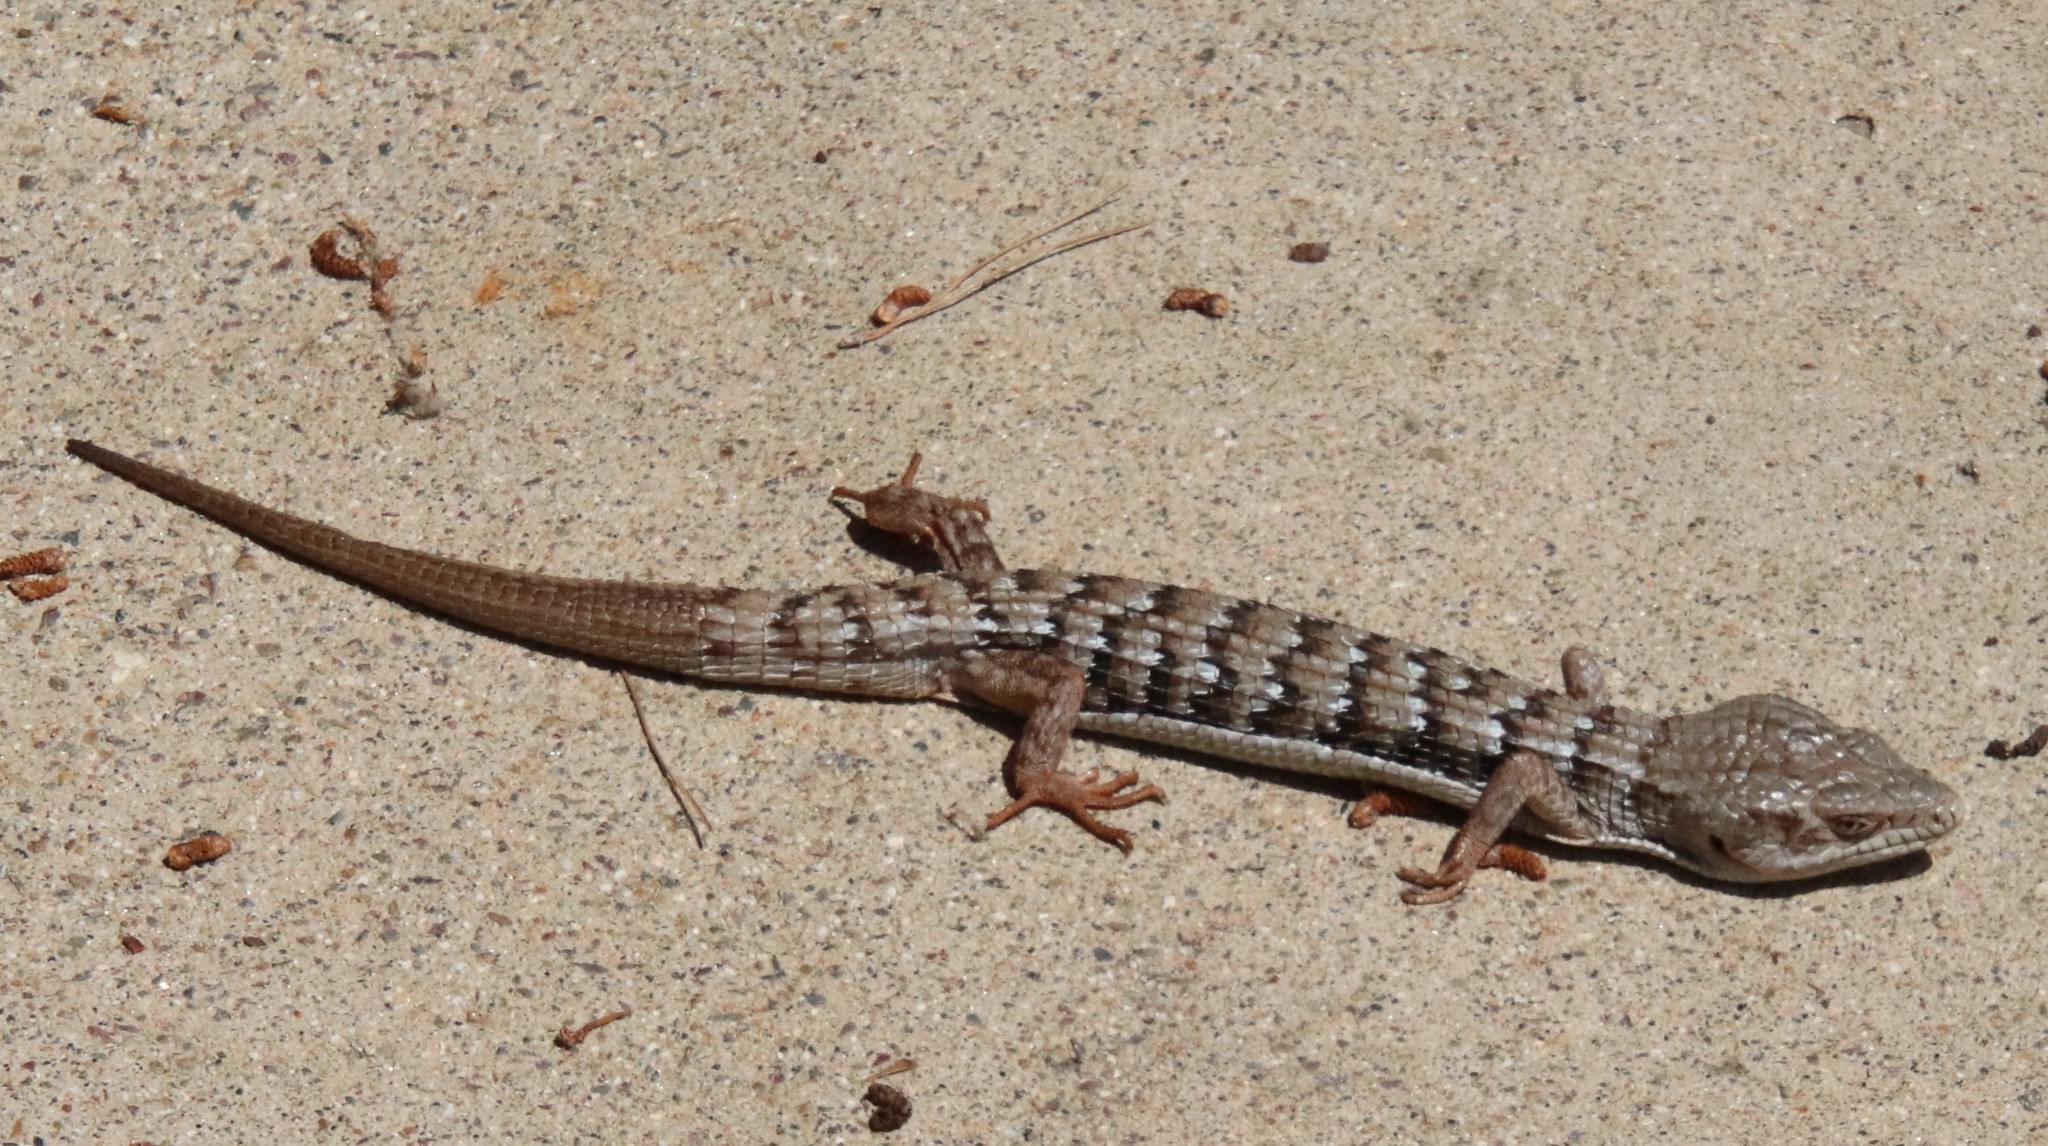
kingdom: Animalia
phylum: Chordata
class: Squamata
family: Anguidae
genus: Elgaria
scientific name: Elgaria multicarinata
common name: Southern alligator lizard
